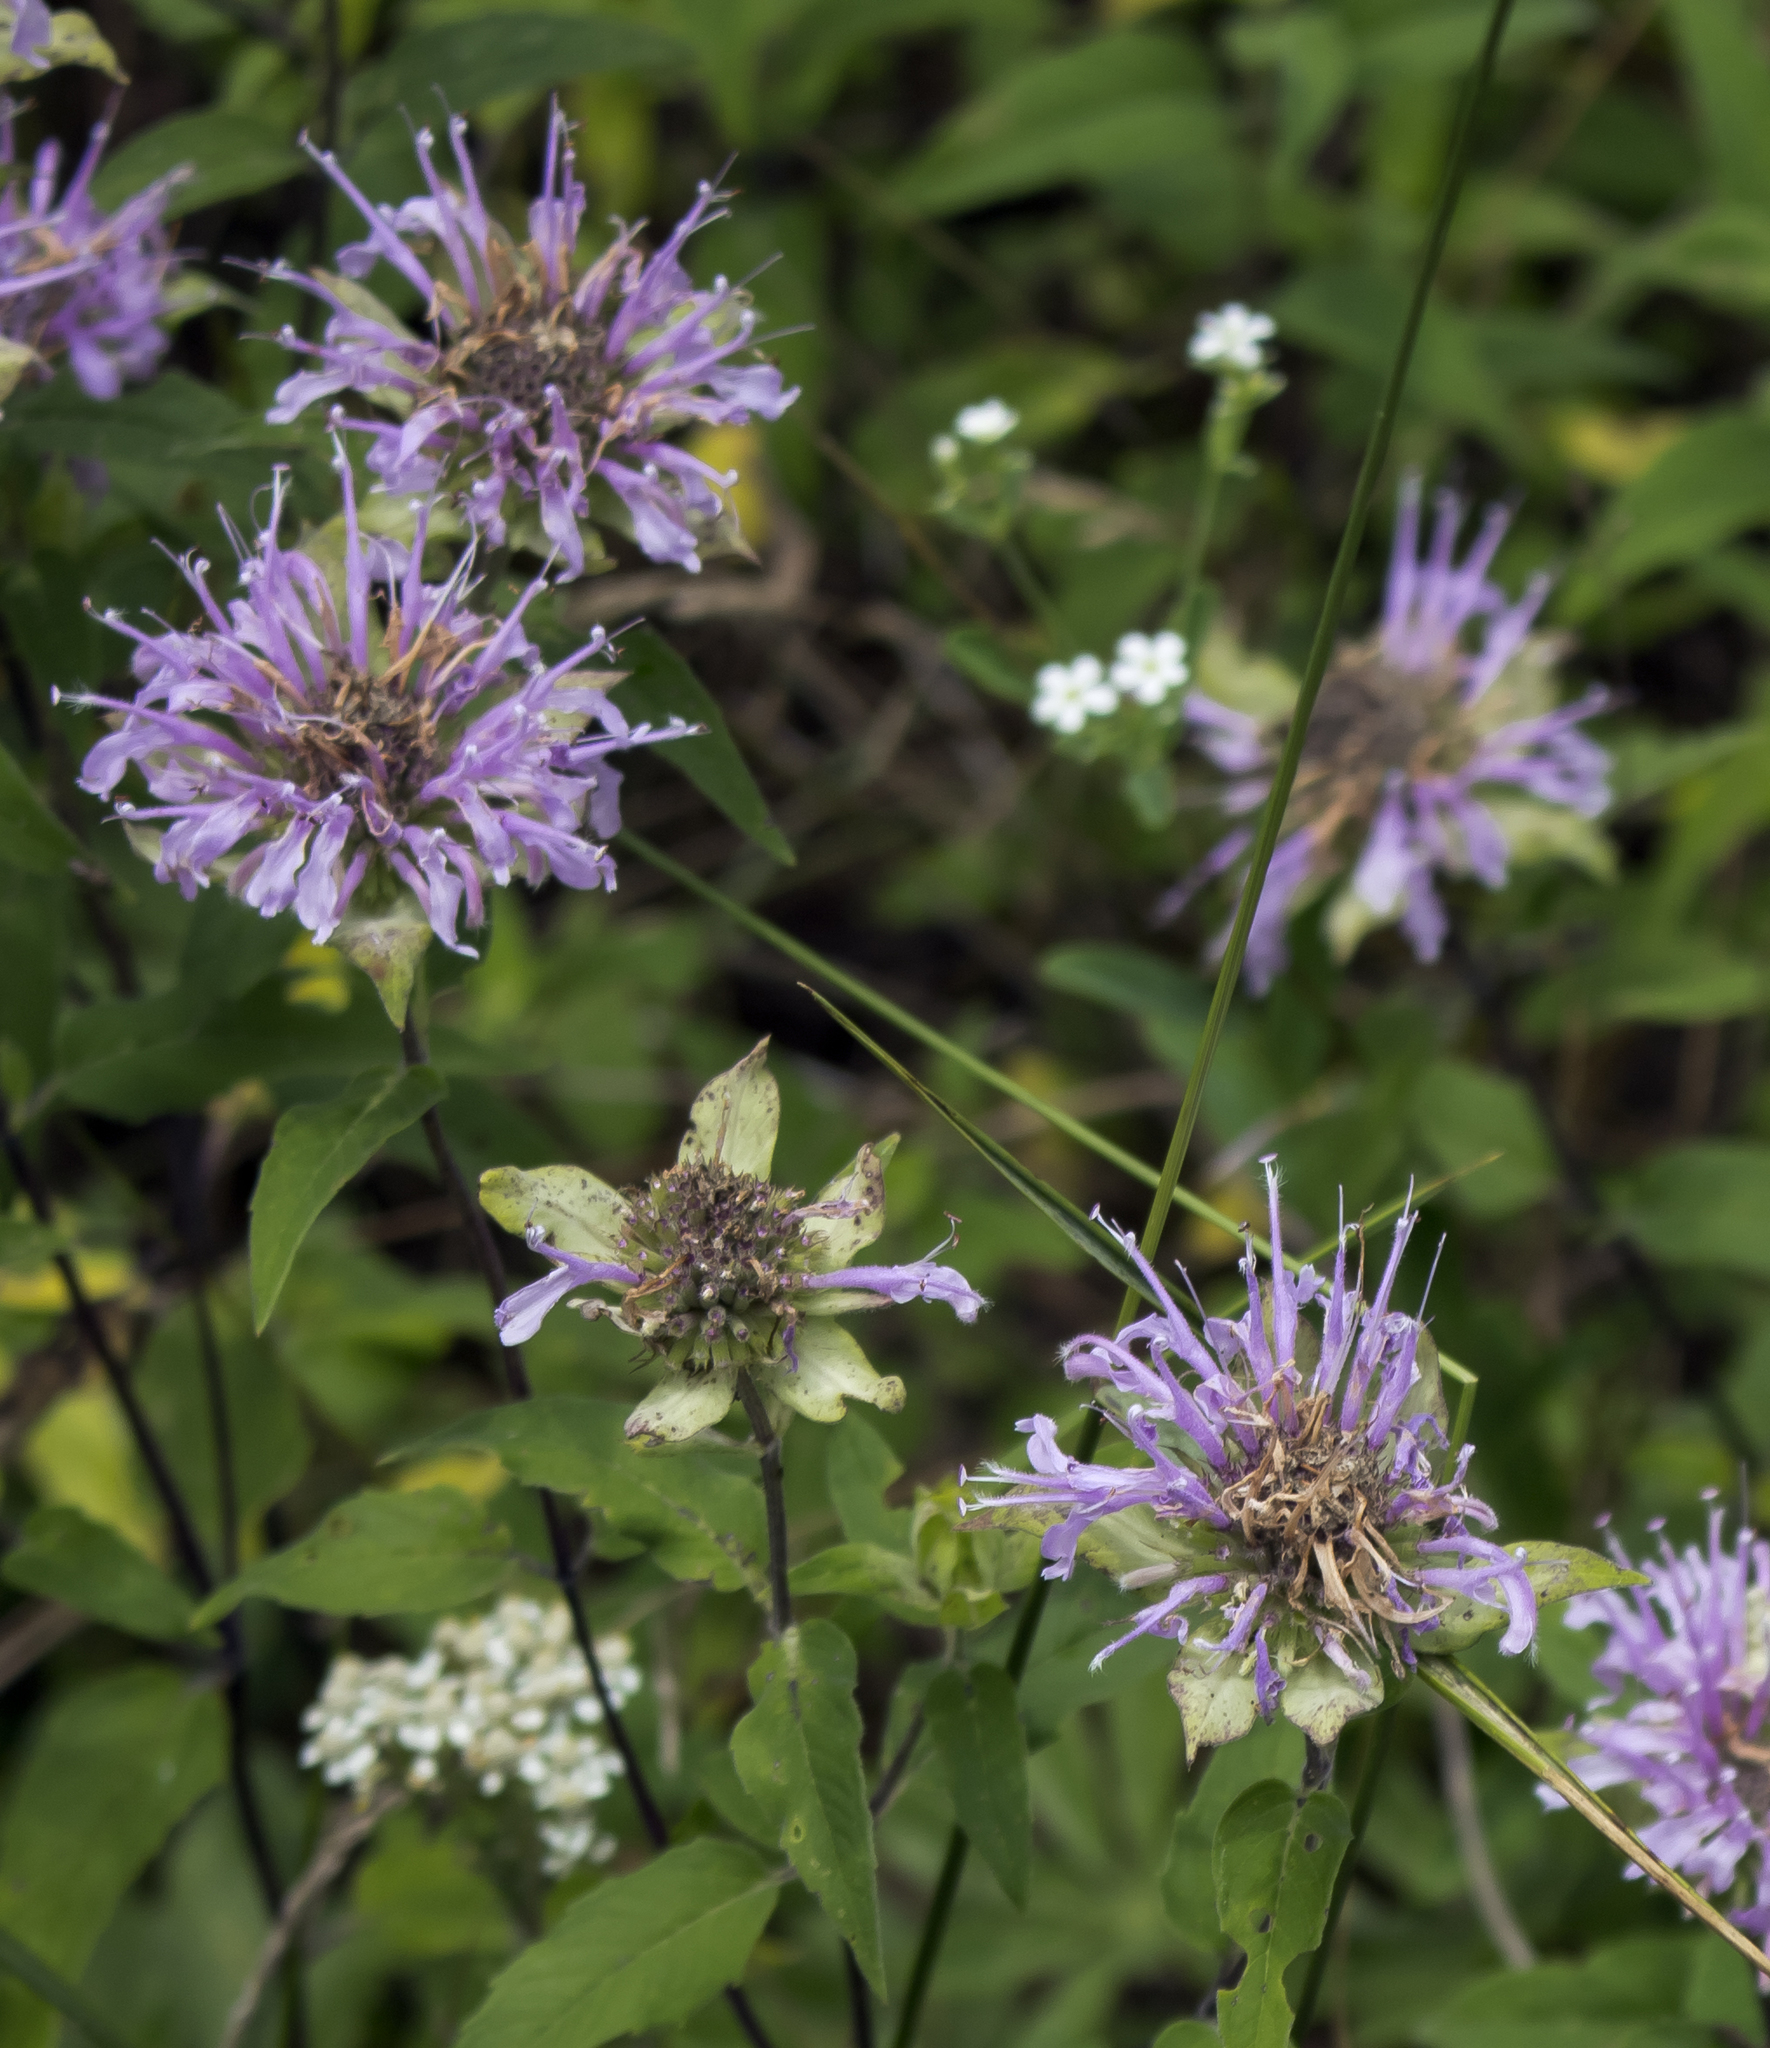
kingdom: Plantae
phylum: Tracheophyta
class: Magnoliopsida
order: Lamiales
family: Lamiaceae
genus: Monarda
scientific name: Monarda fistulosa
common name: Purple beebalm
